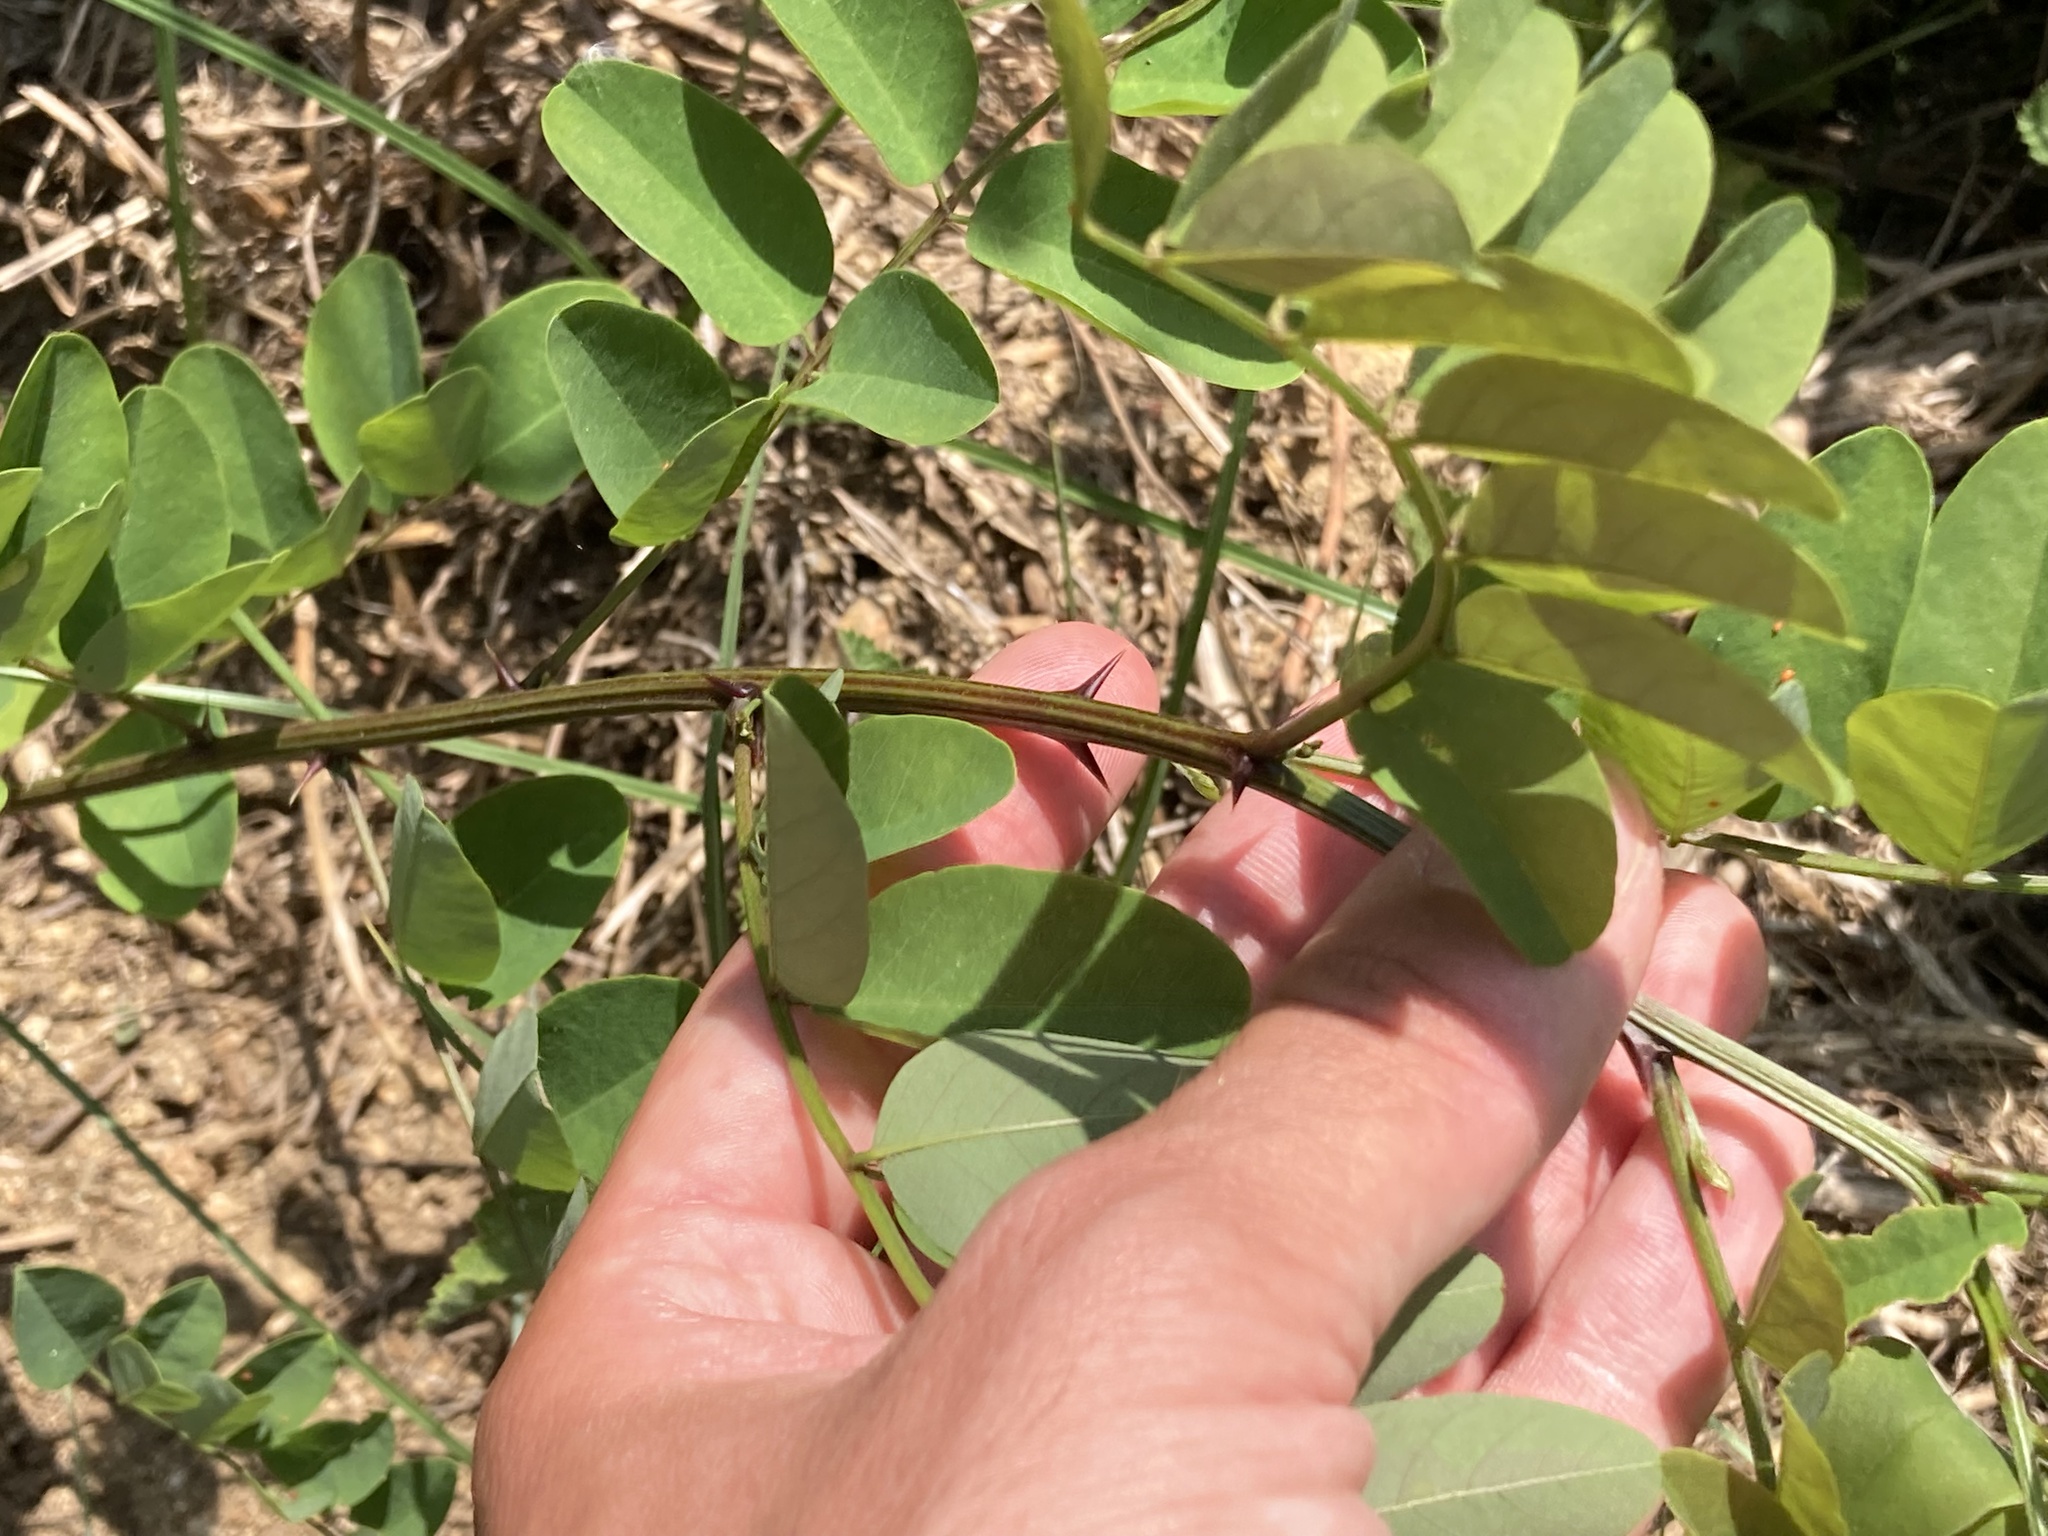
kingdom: Plantae
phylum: Tracheophyta
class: Magnoliopsida
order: Fabales
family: Fabaceae
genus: Robinia
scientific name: Robinia pseudoacacia
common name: Black locust
